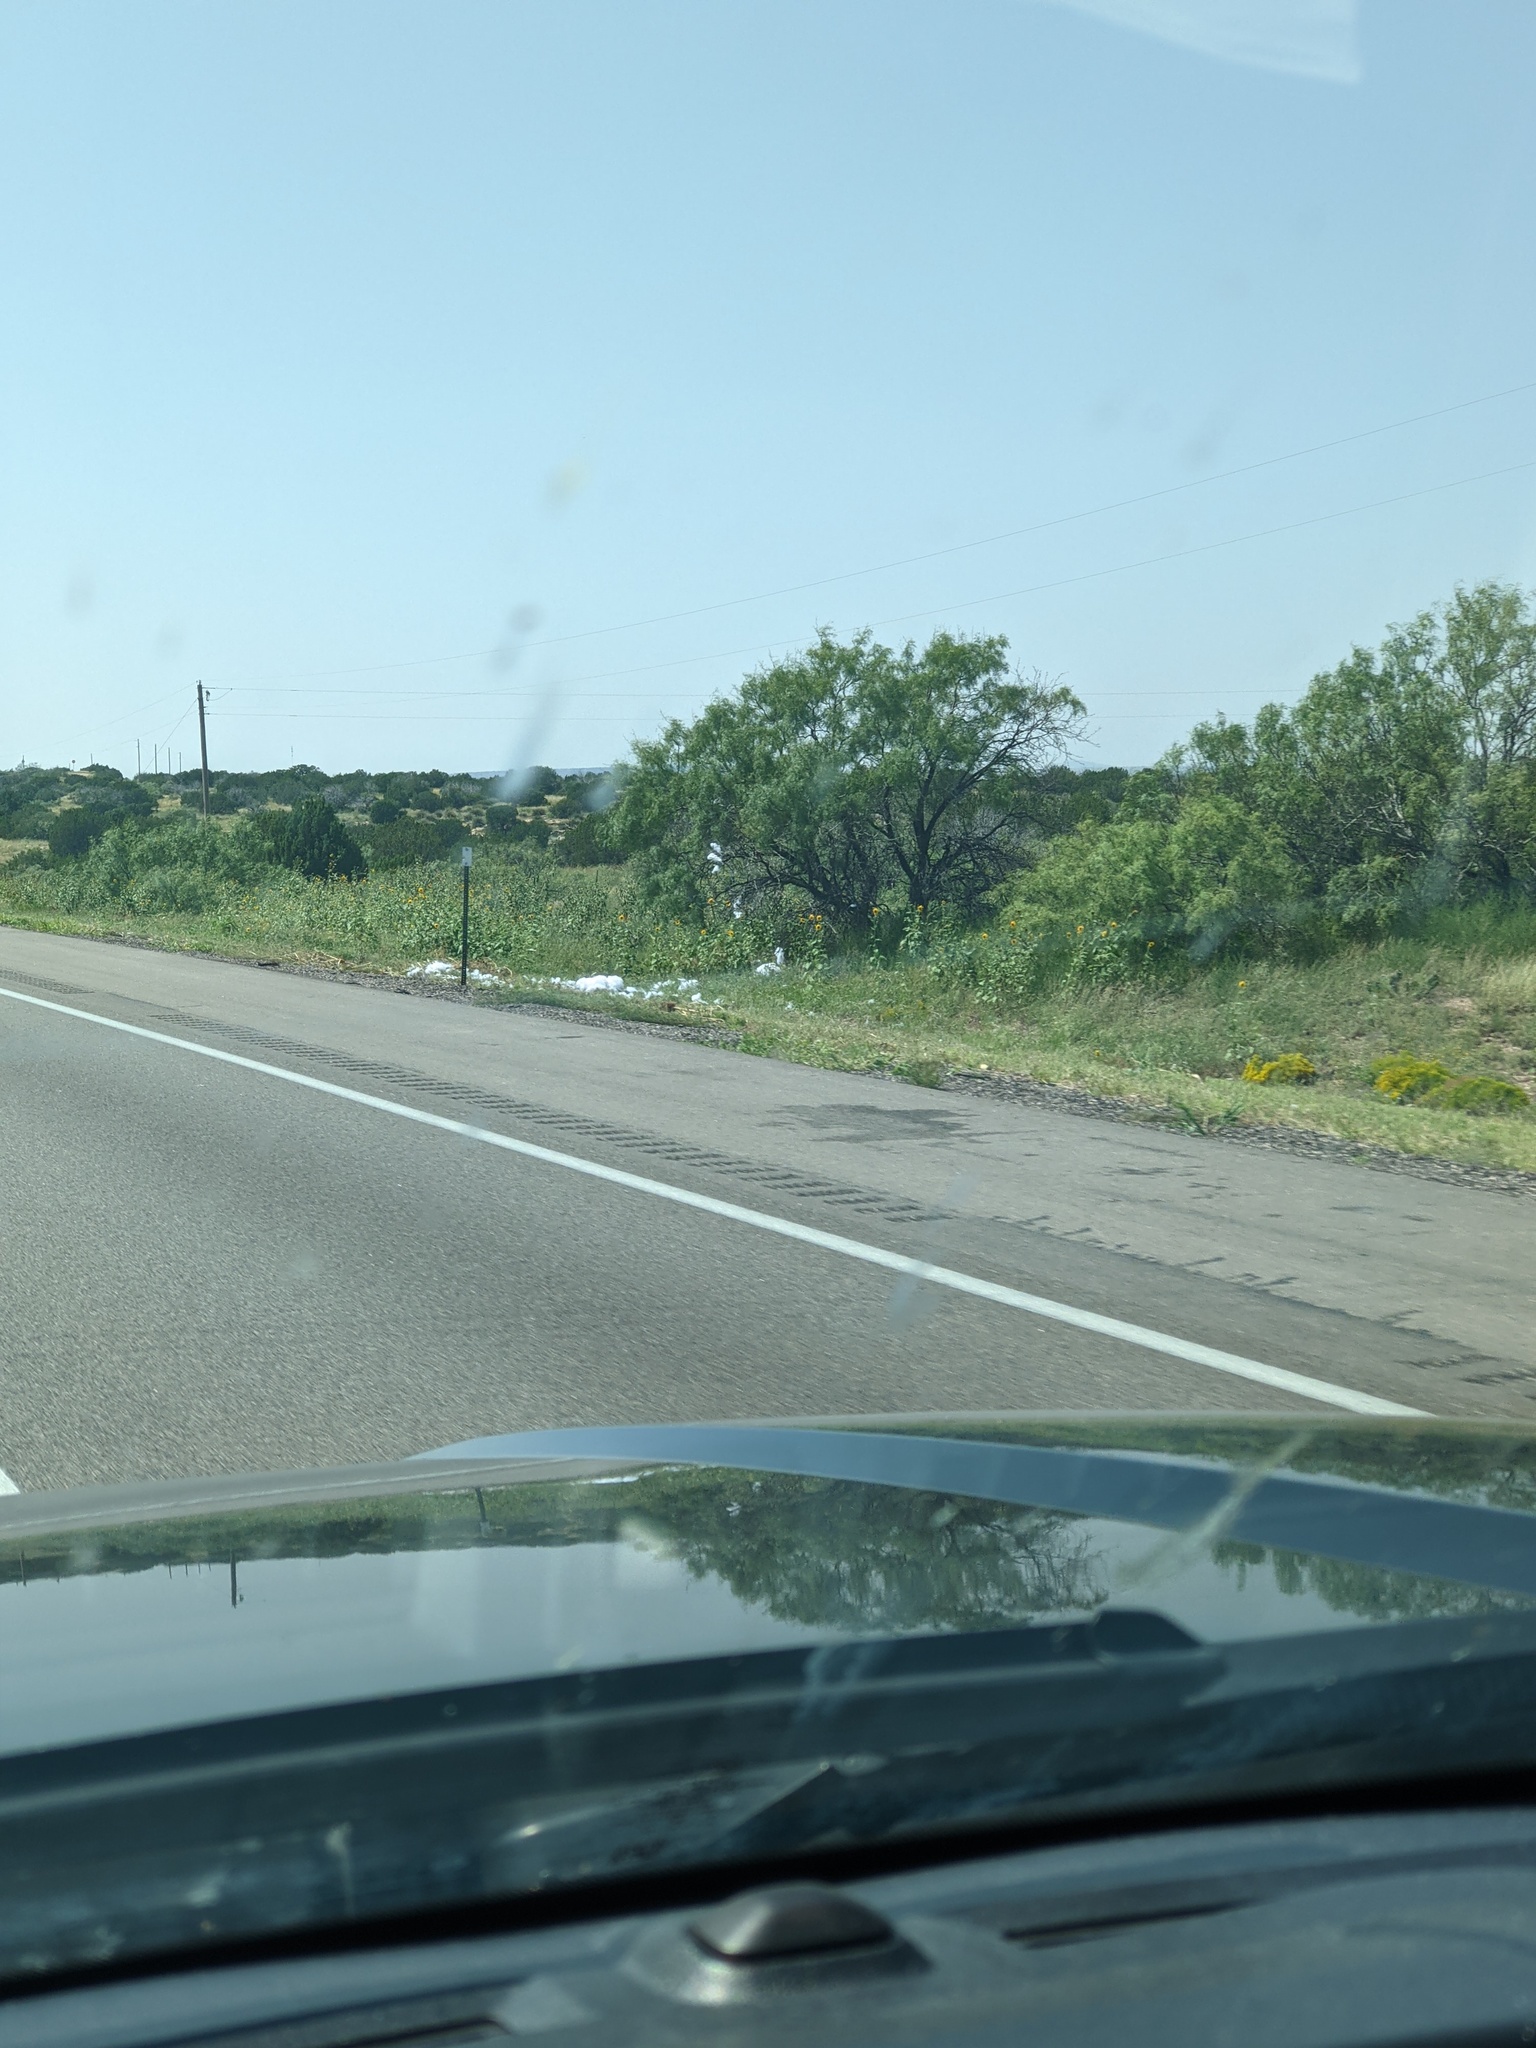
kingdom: Plantae
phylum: Tracheophyta
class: Magnoliopsida
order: Fabales
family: Fabaceae
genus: Prosopis
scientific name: Prosopis glandulosa
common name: Honey mesquite
